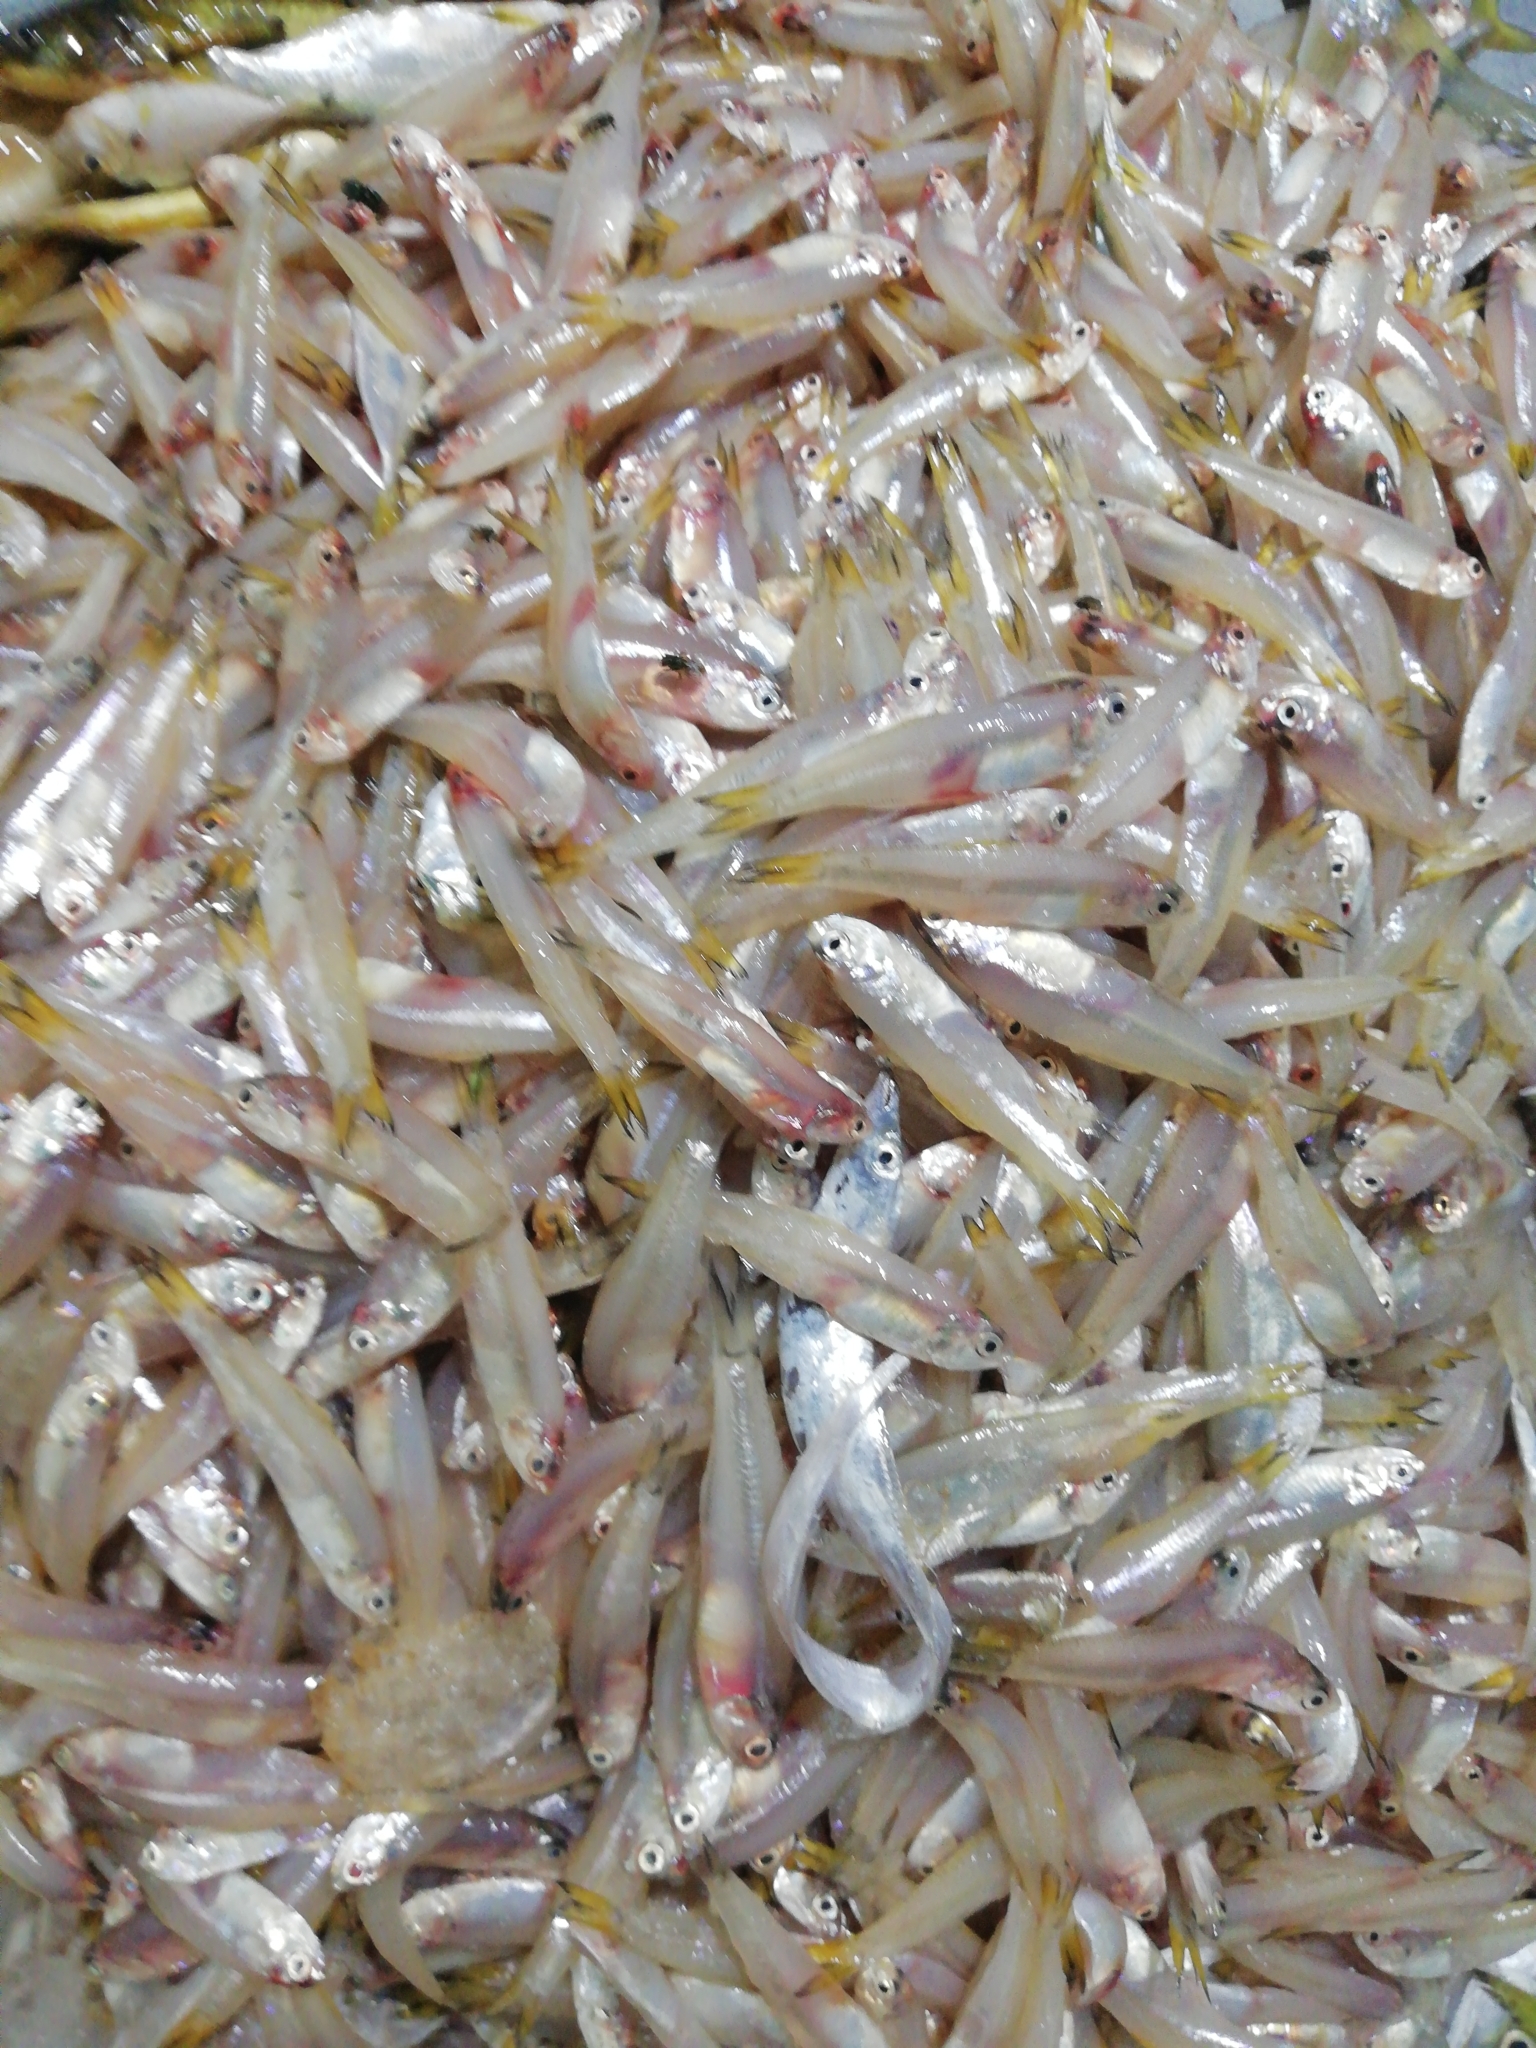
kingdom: Animalia
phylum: Chordata
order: Clupeiformes
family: Engraulidae
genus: Stolephorus
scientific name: Stolephorus indicus
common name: Indian anchovy
